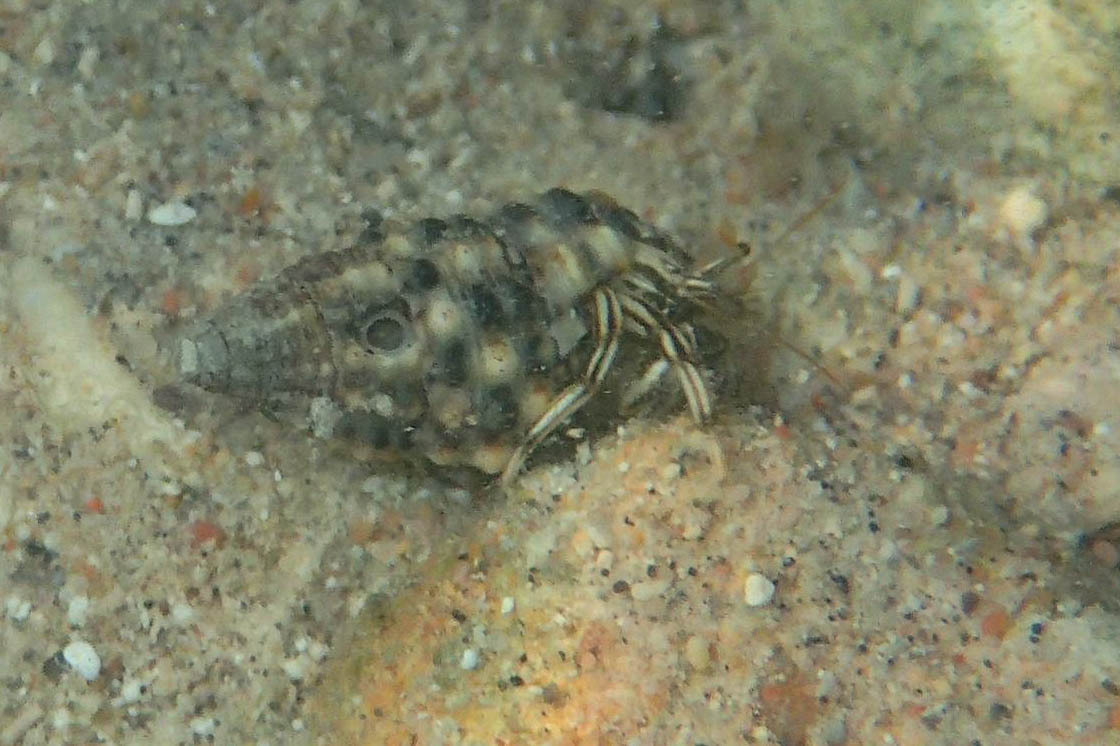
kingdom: Animalia
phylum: Arthropoda
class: Malacostraca
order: Decapoda
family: Diogenidae
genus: Clibanarius
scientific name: Clibanarius signatus
